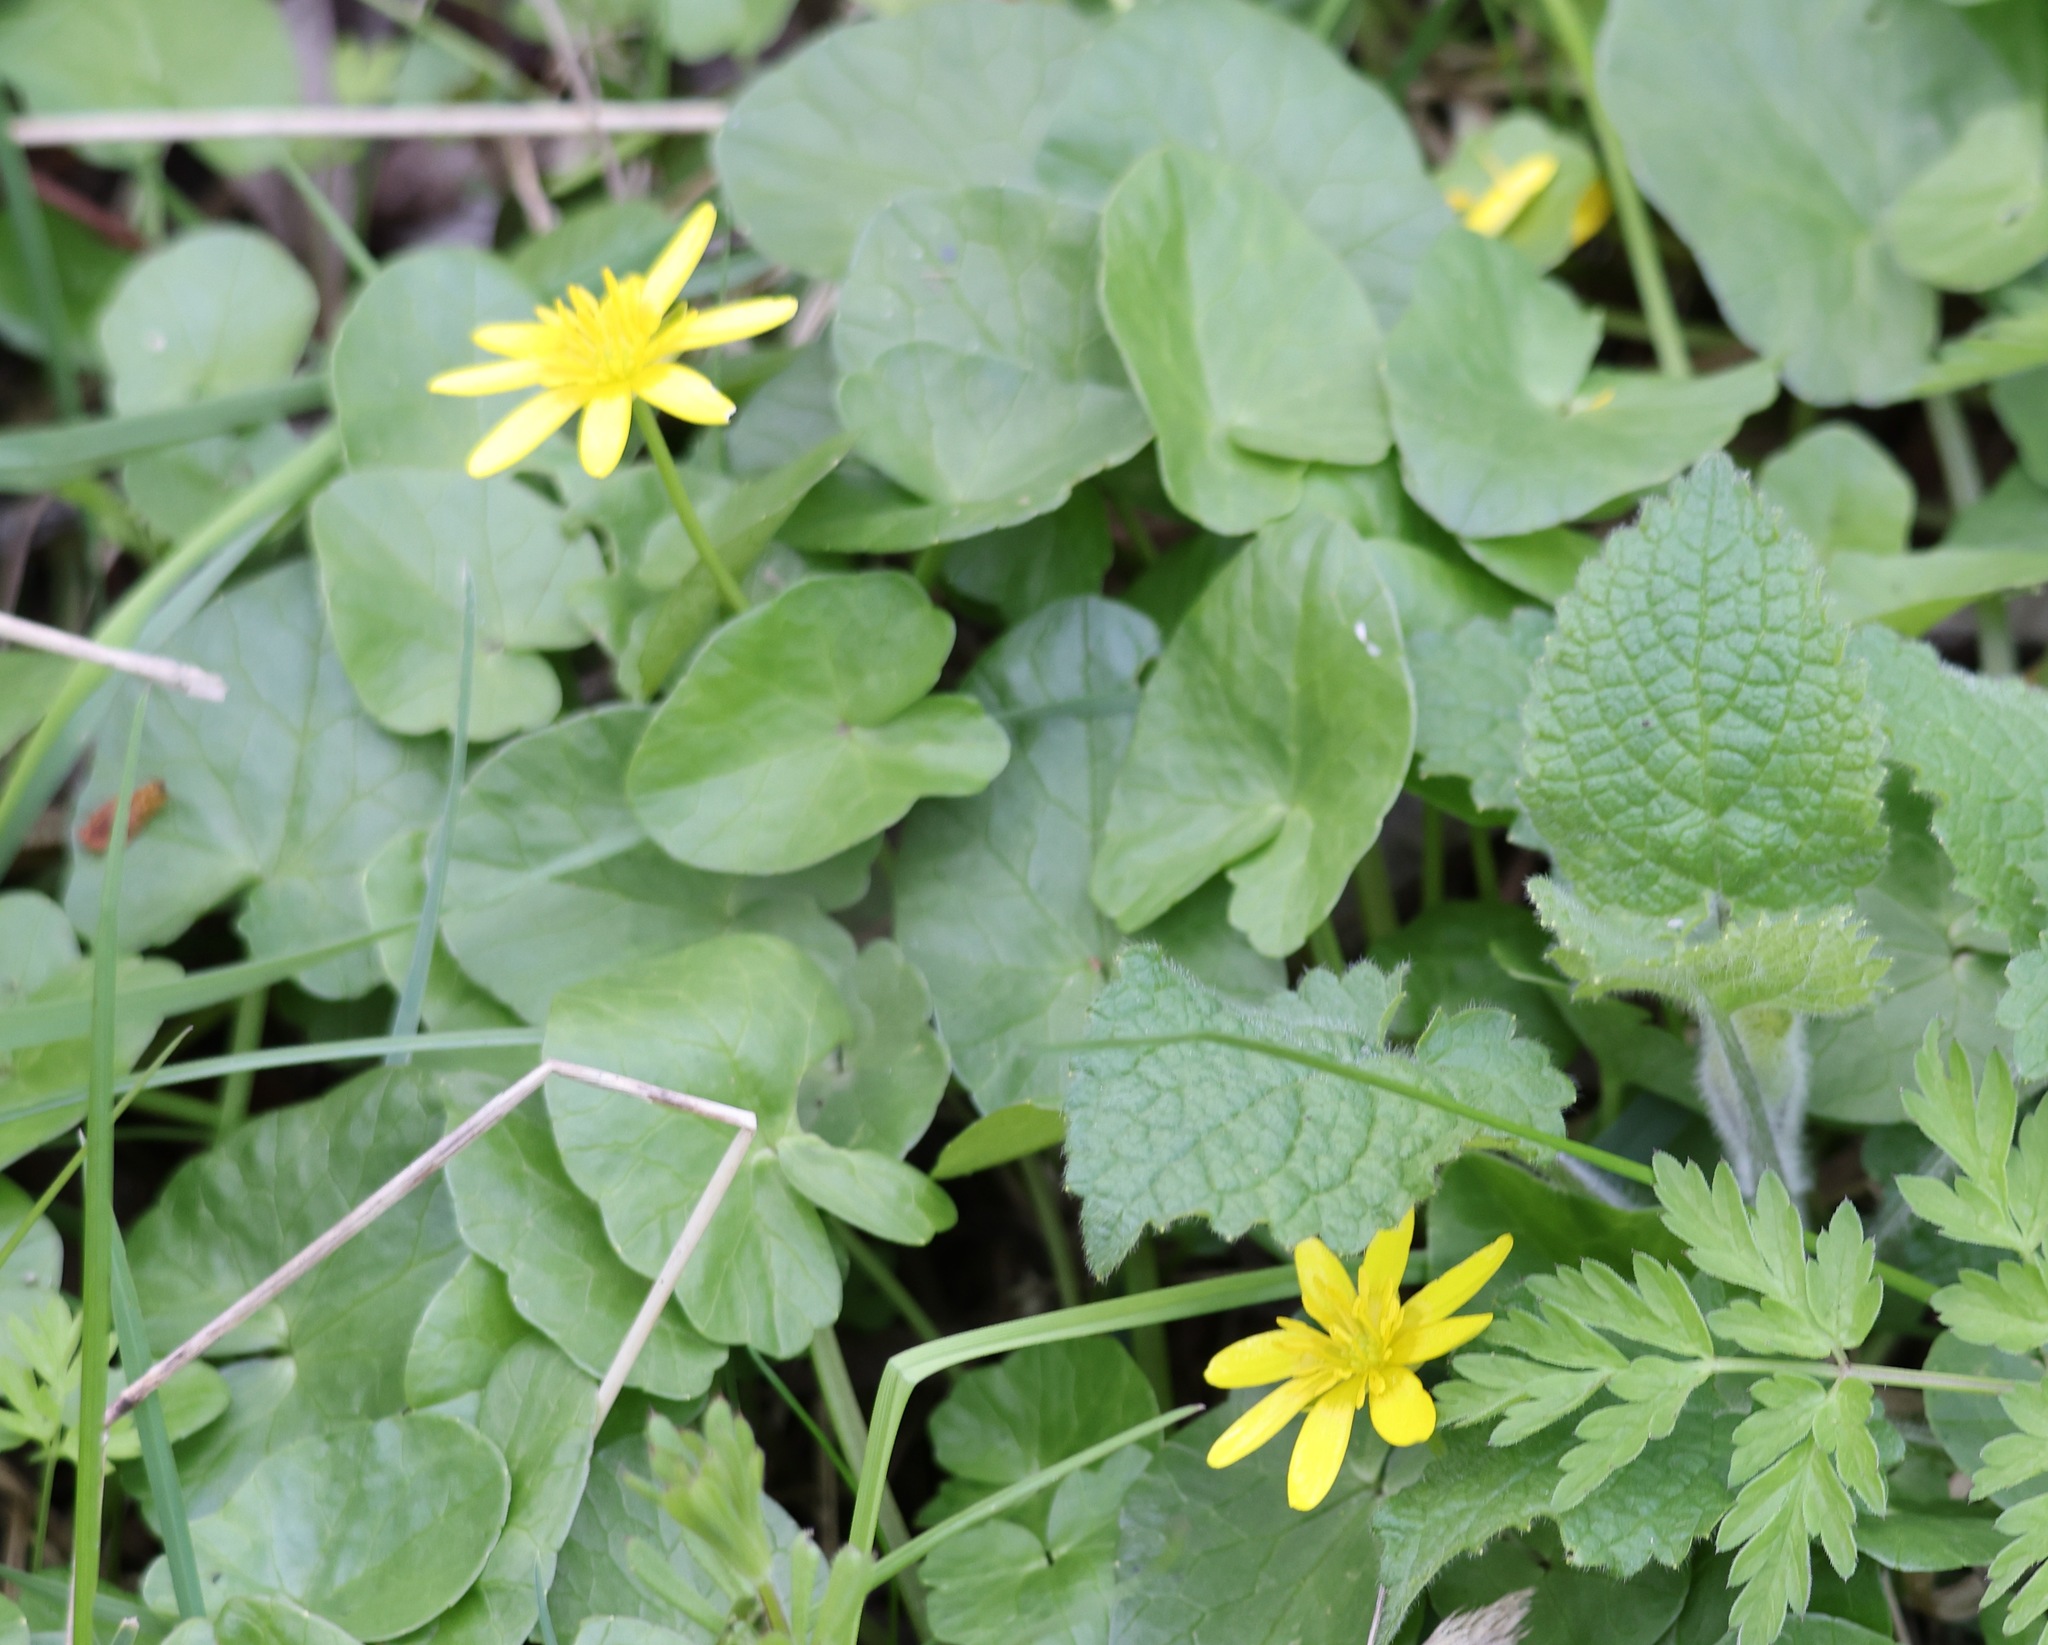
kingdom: Plantae
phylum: Tracheophyta
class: Magnoliopsida
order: Ranunculales
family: Ranunculaceae
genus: Ficaria
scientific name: Ficaria verna
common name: Lesser celandine
